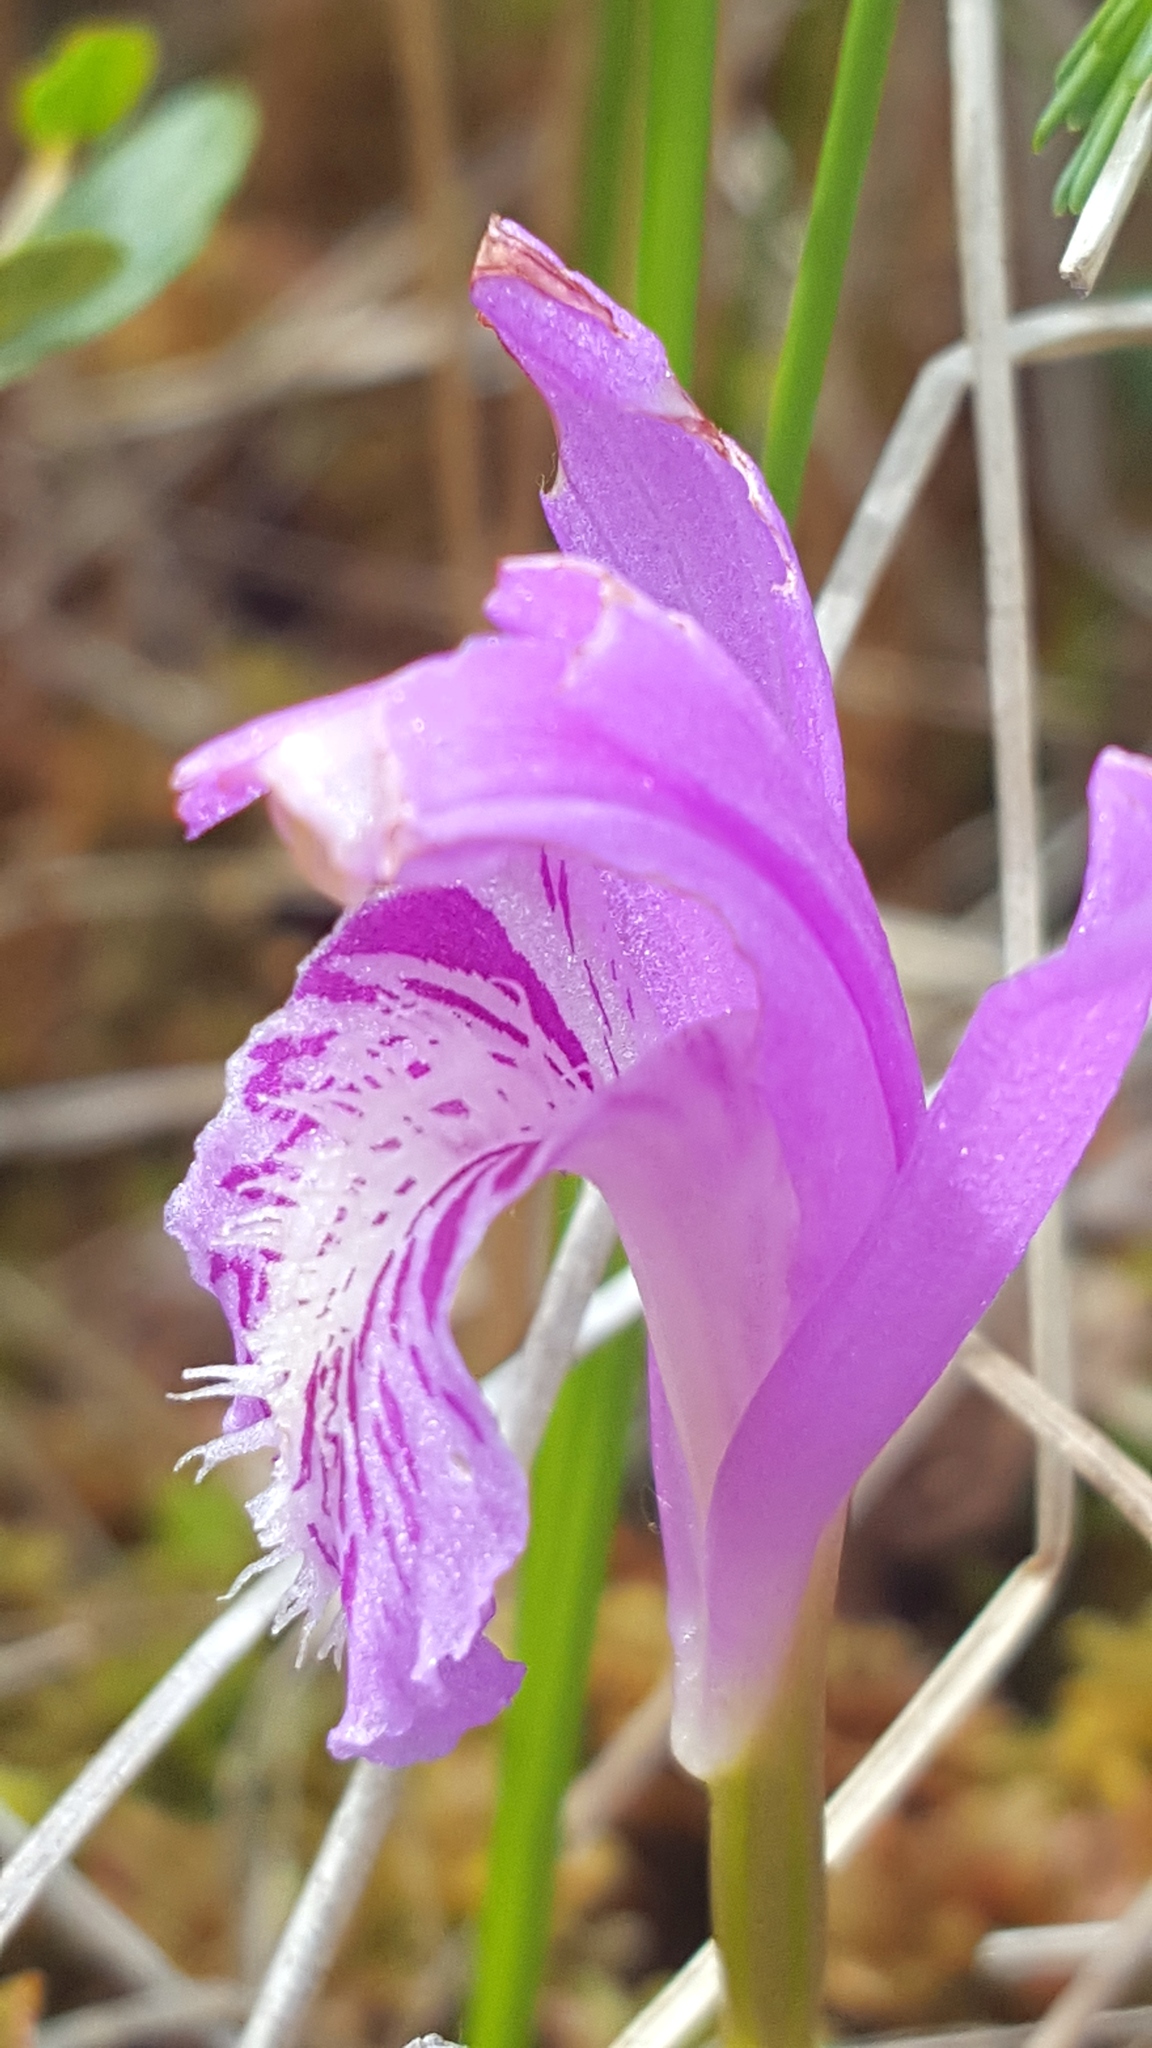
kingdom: Plantae
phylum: Tracheophyta
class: Liliopsida
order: Asparagales
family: Orchidaceae
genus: Arethusa
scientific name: Arethusa bulbosa
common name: Arethusa
